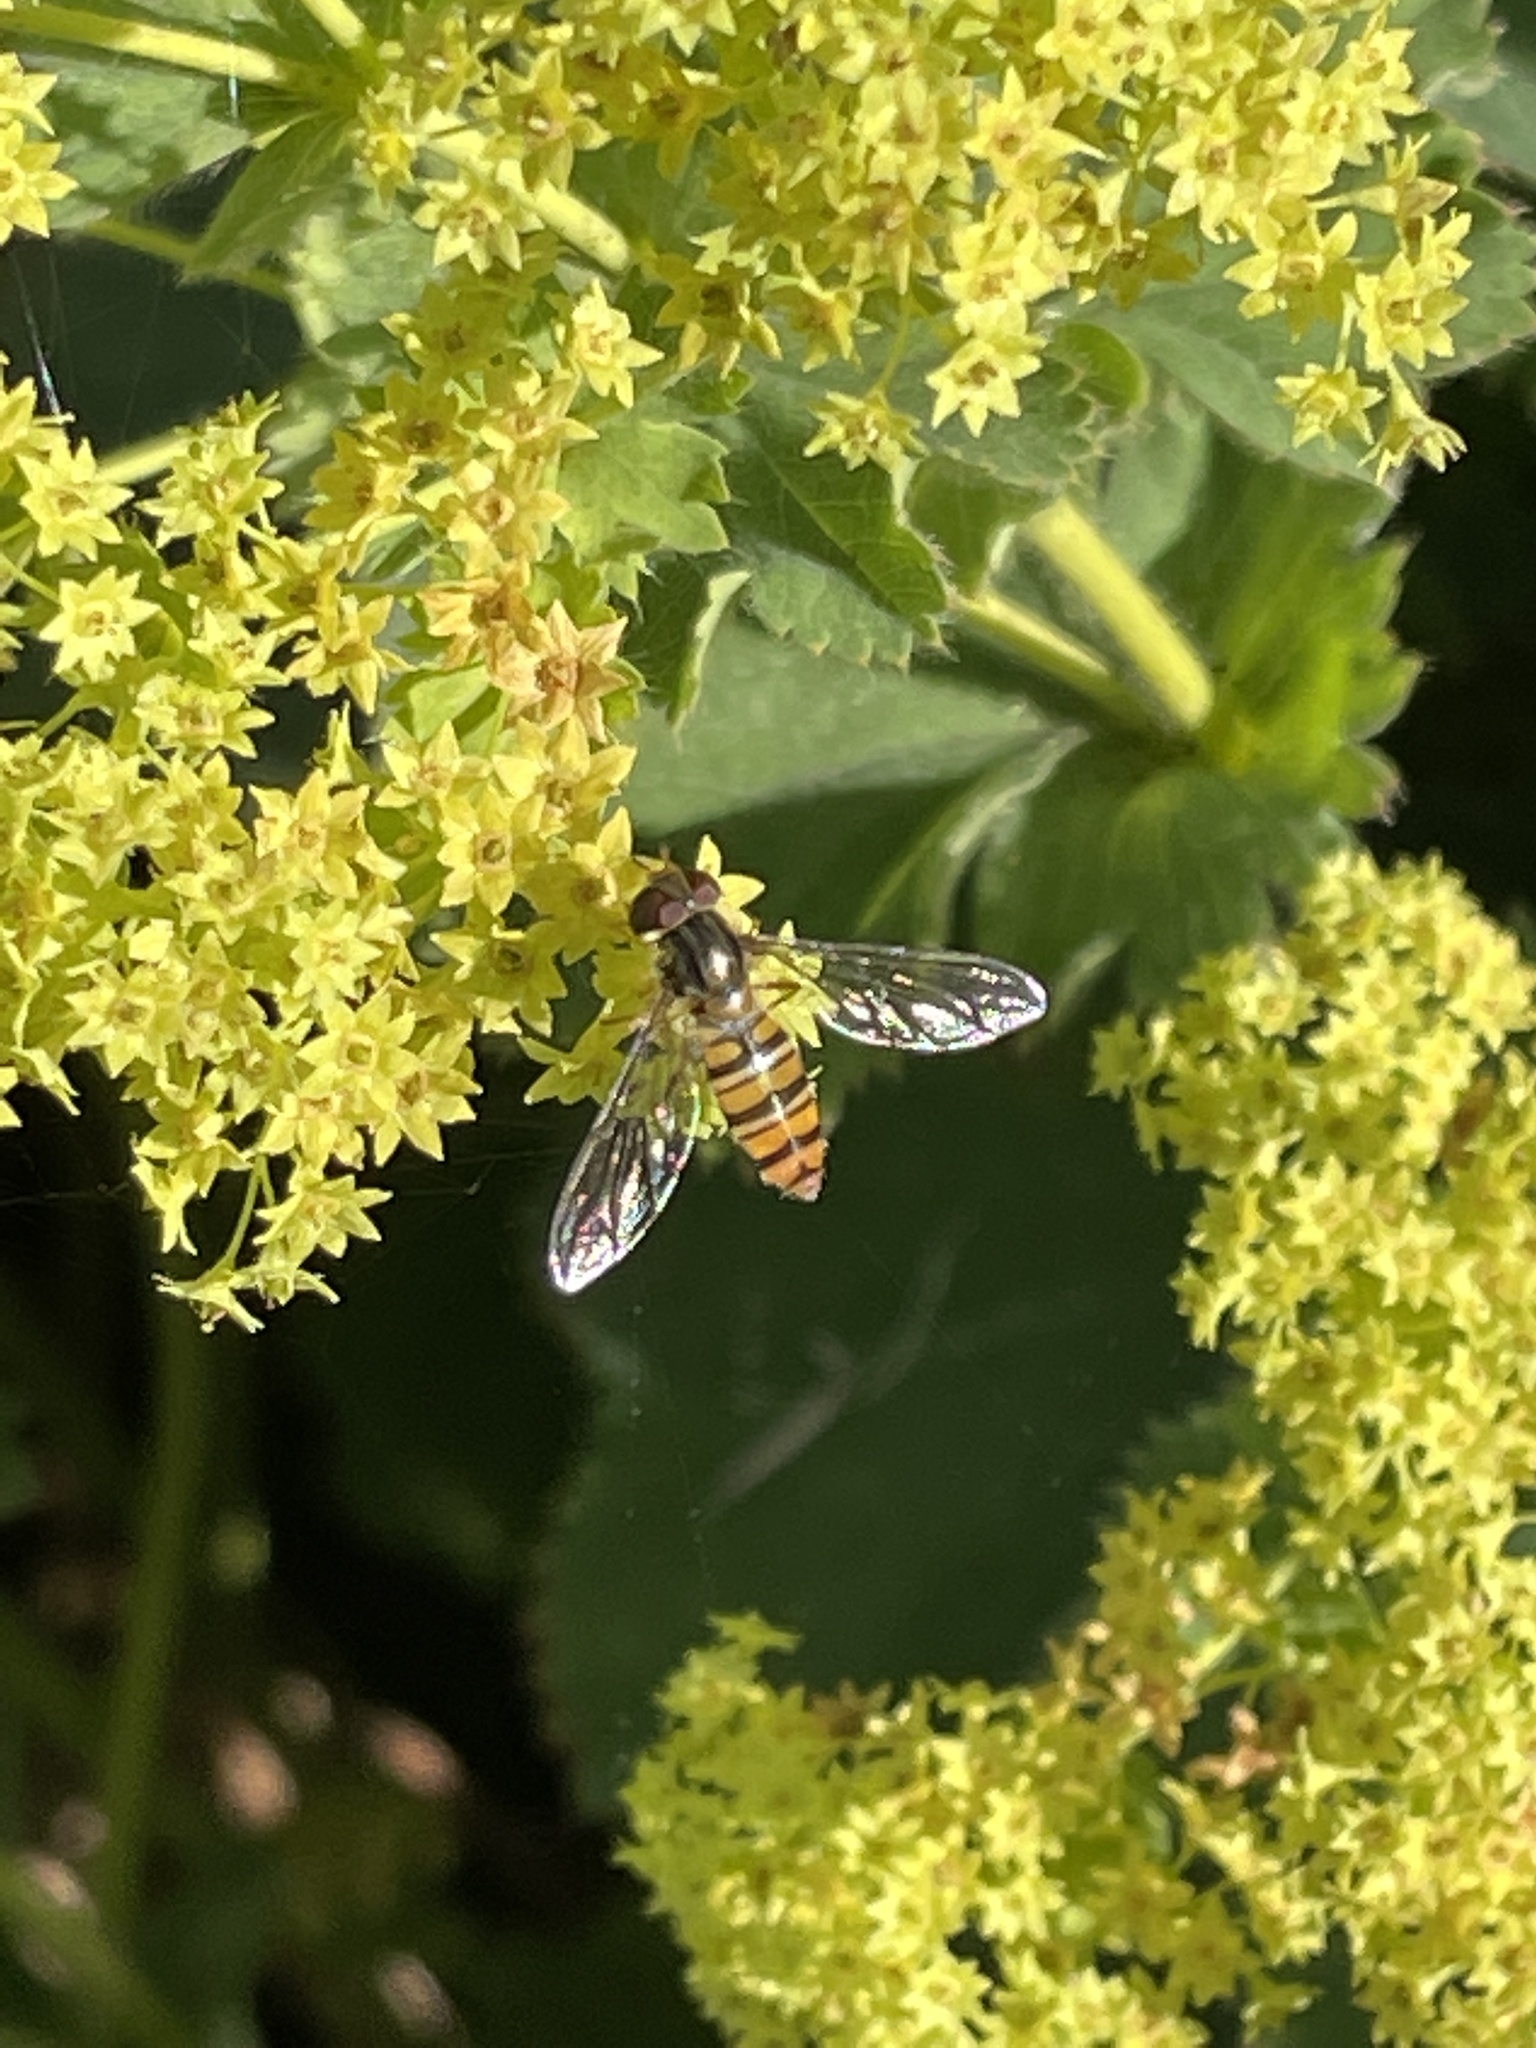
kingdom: Animalia
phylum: Arthropoda
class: Insecta
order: Diptera
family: Syrphidae
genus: Episyrphus
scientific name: Episyrphus balteatus
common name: Marmalade hoverfly
